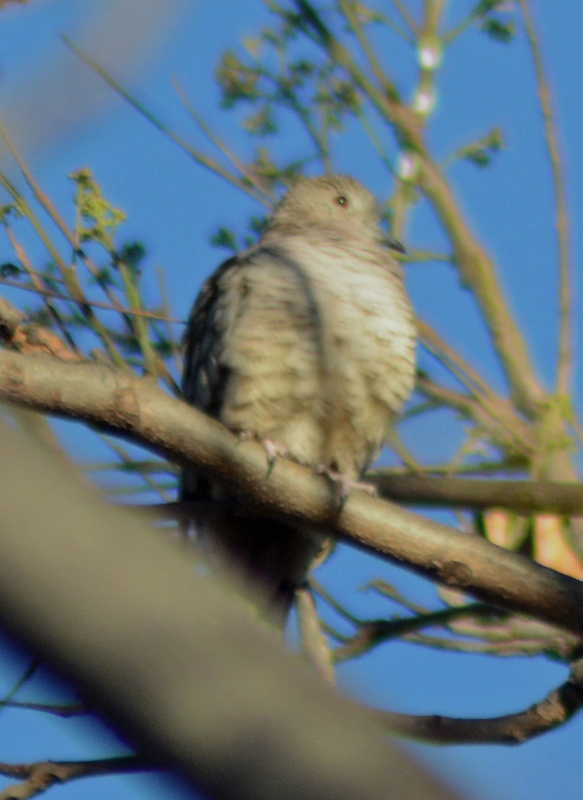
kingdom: Animalia
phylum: Chordata
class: Aves
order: Columbiformes
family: Columbidae
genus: Columbina
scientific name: Columbina inca
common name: Inca dove
